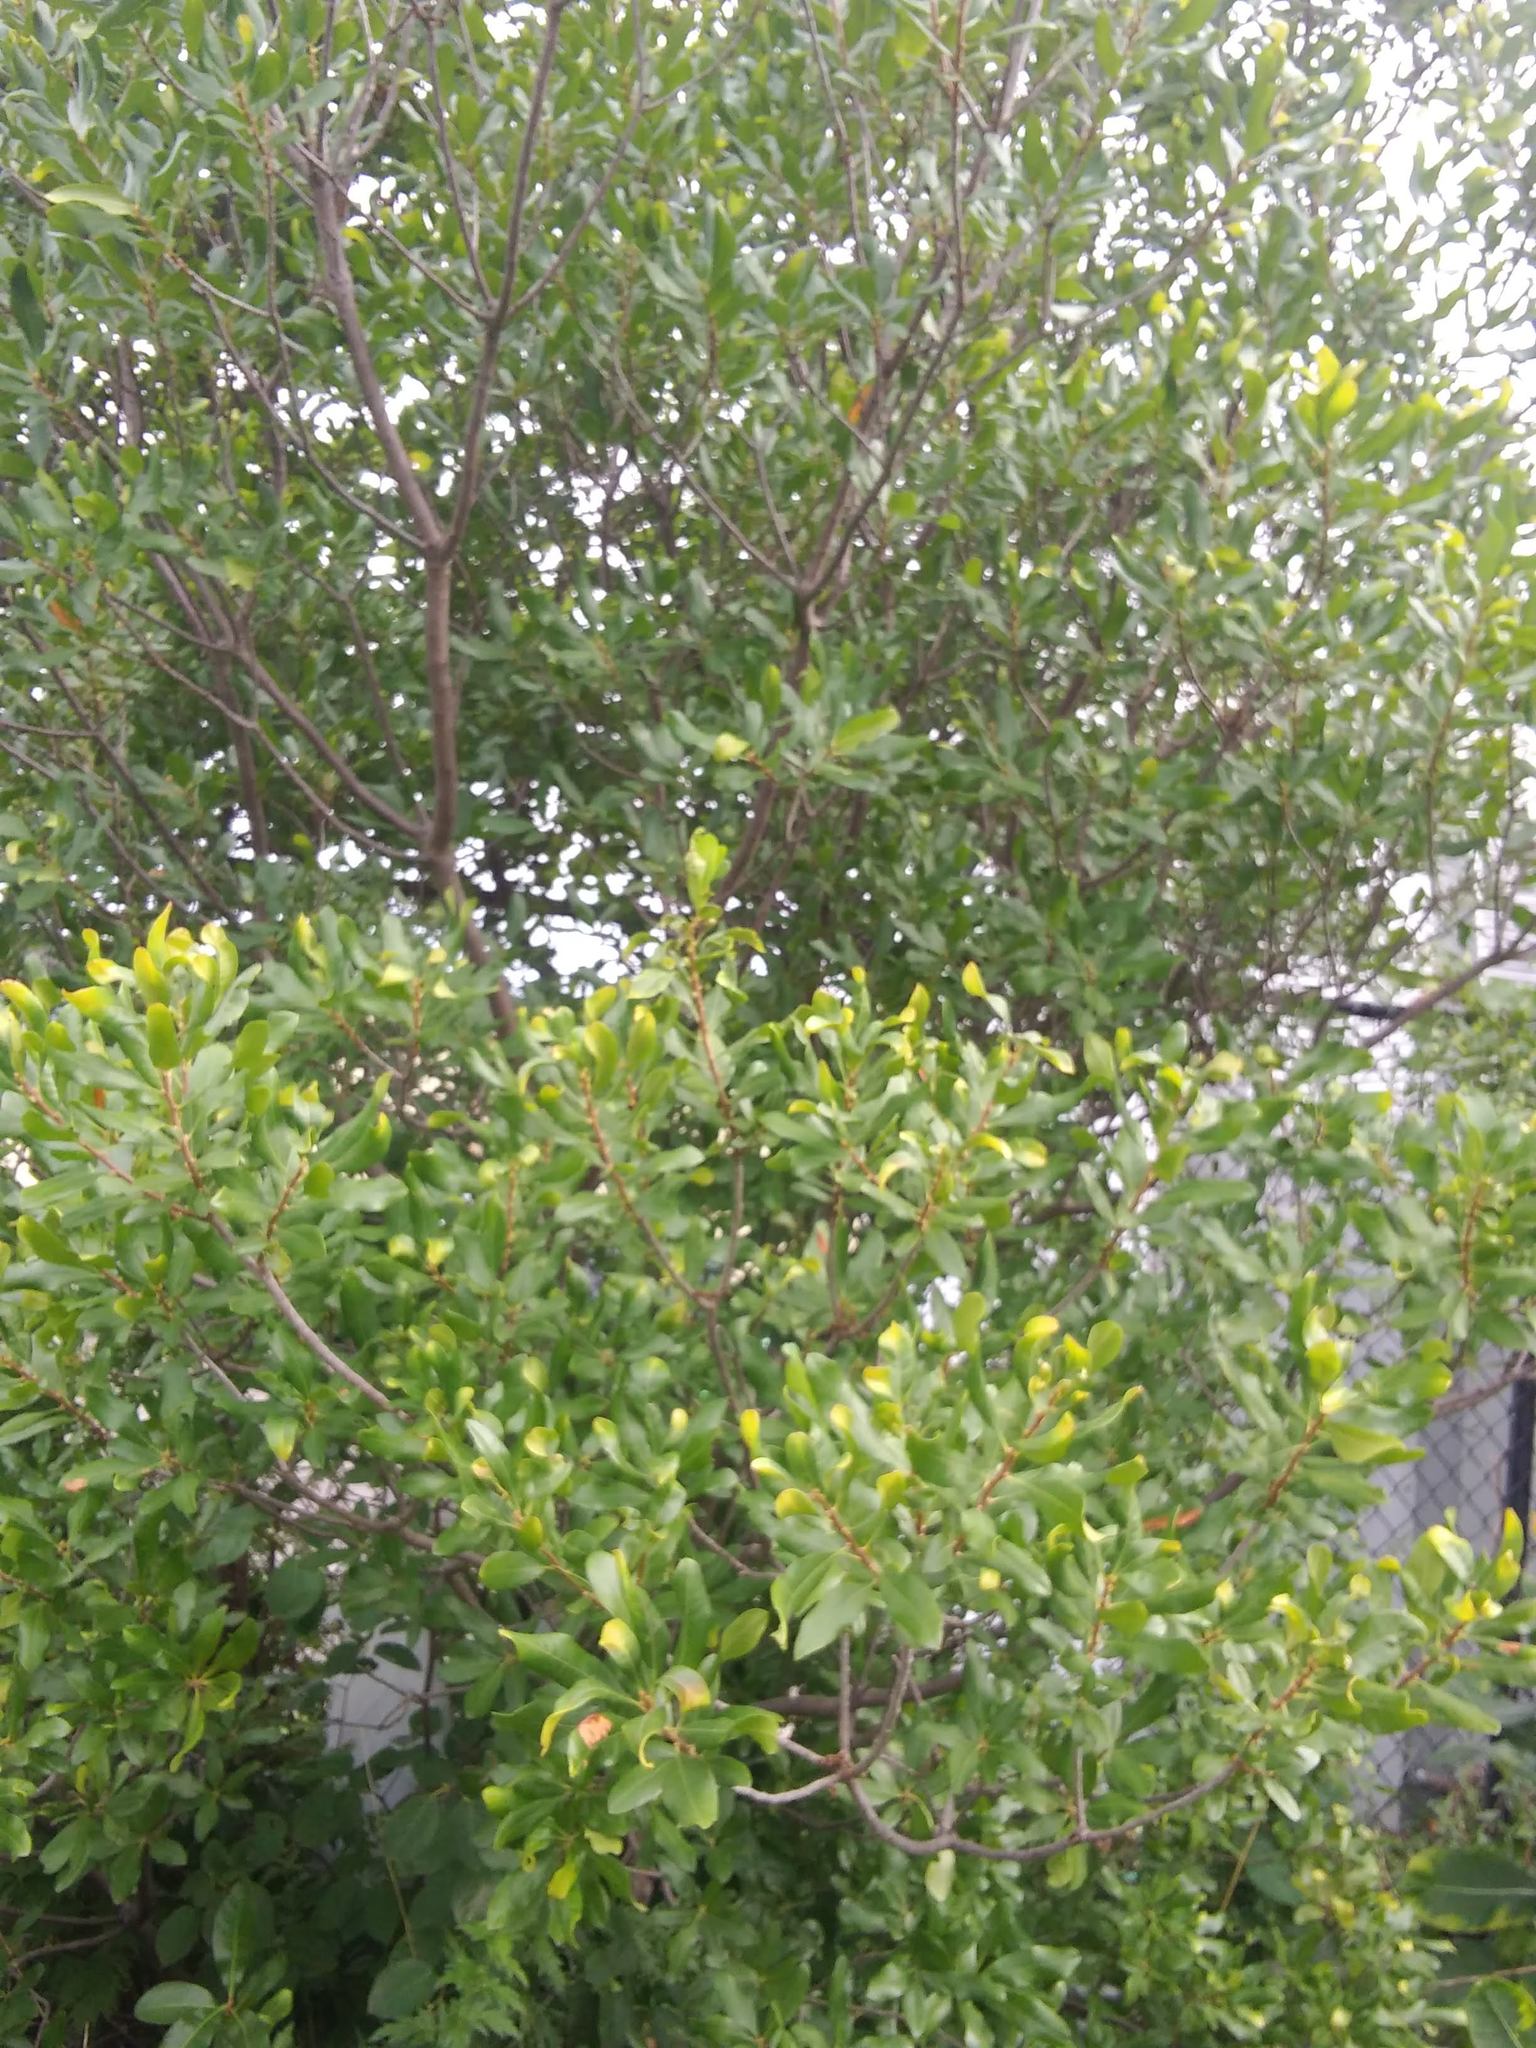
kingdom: Plantae
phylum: Tracheophyta
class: Magnoliopsida
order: Fagales
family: Myricaceae
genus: Morella
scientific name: Morella pensylvanica
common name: Northern bayberry
